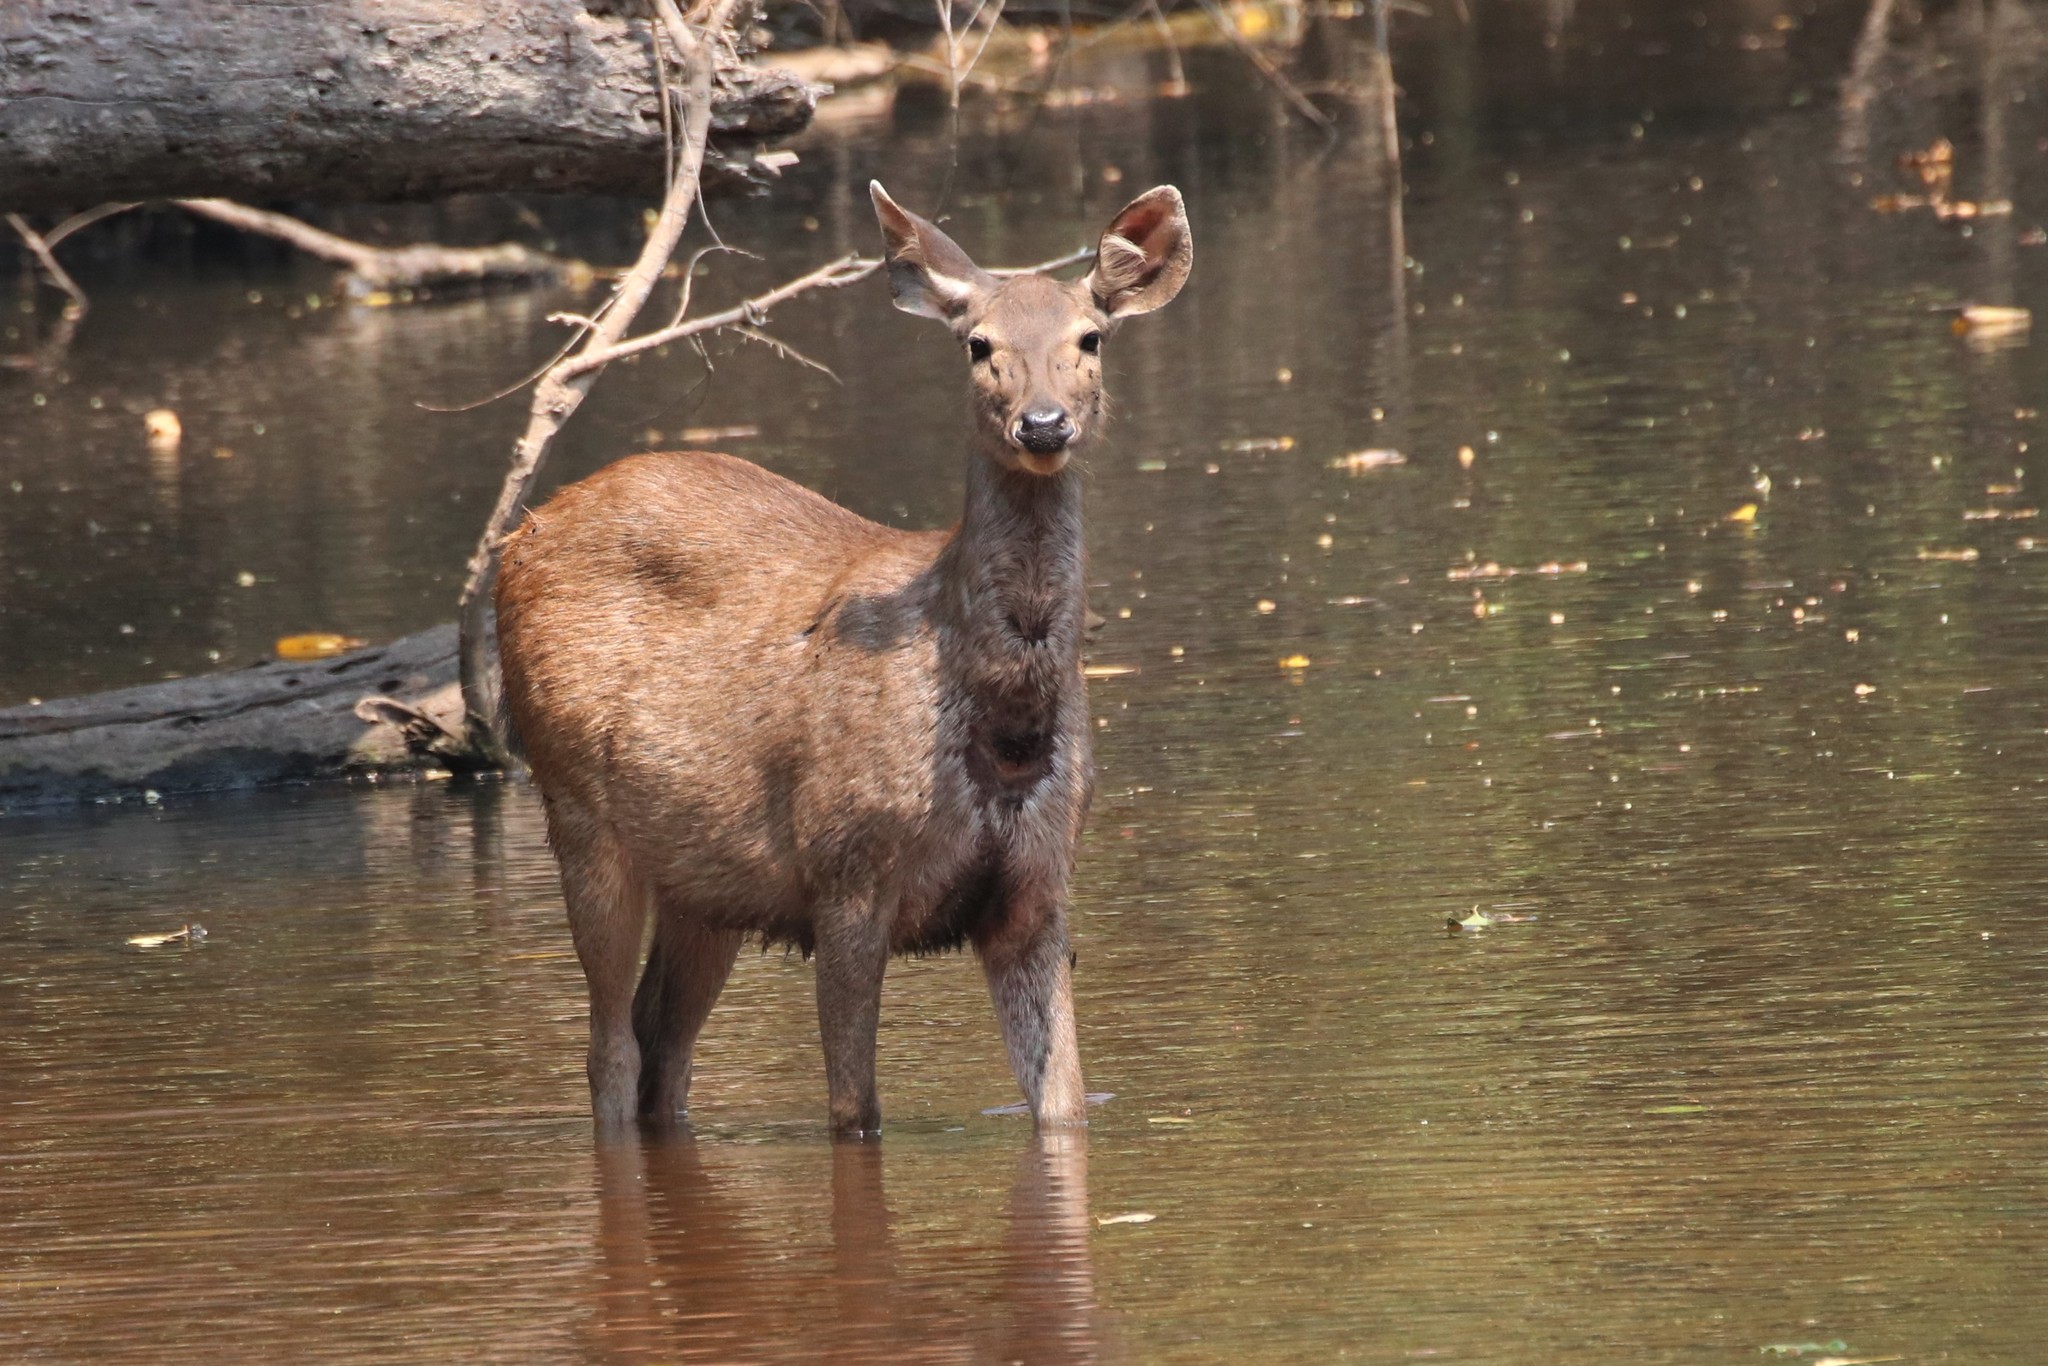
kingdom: Animalia
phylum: Chordata
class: Mammalia
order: Artiodactyla
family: Cervidae
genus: Rusa
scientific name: Rusa unicolor
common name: Sambar
